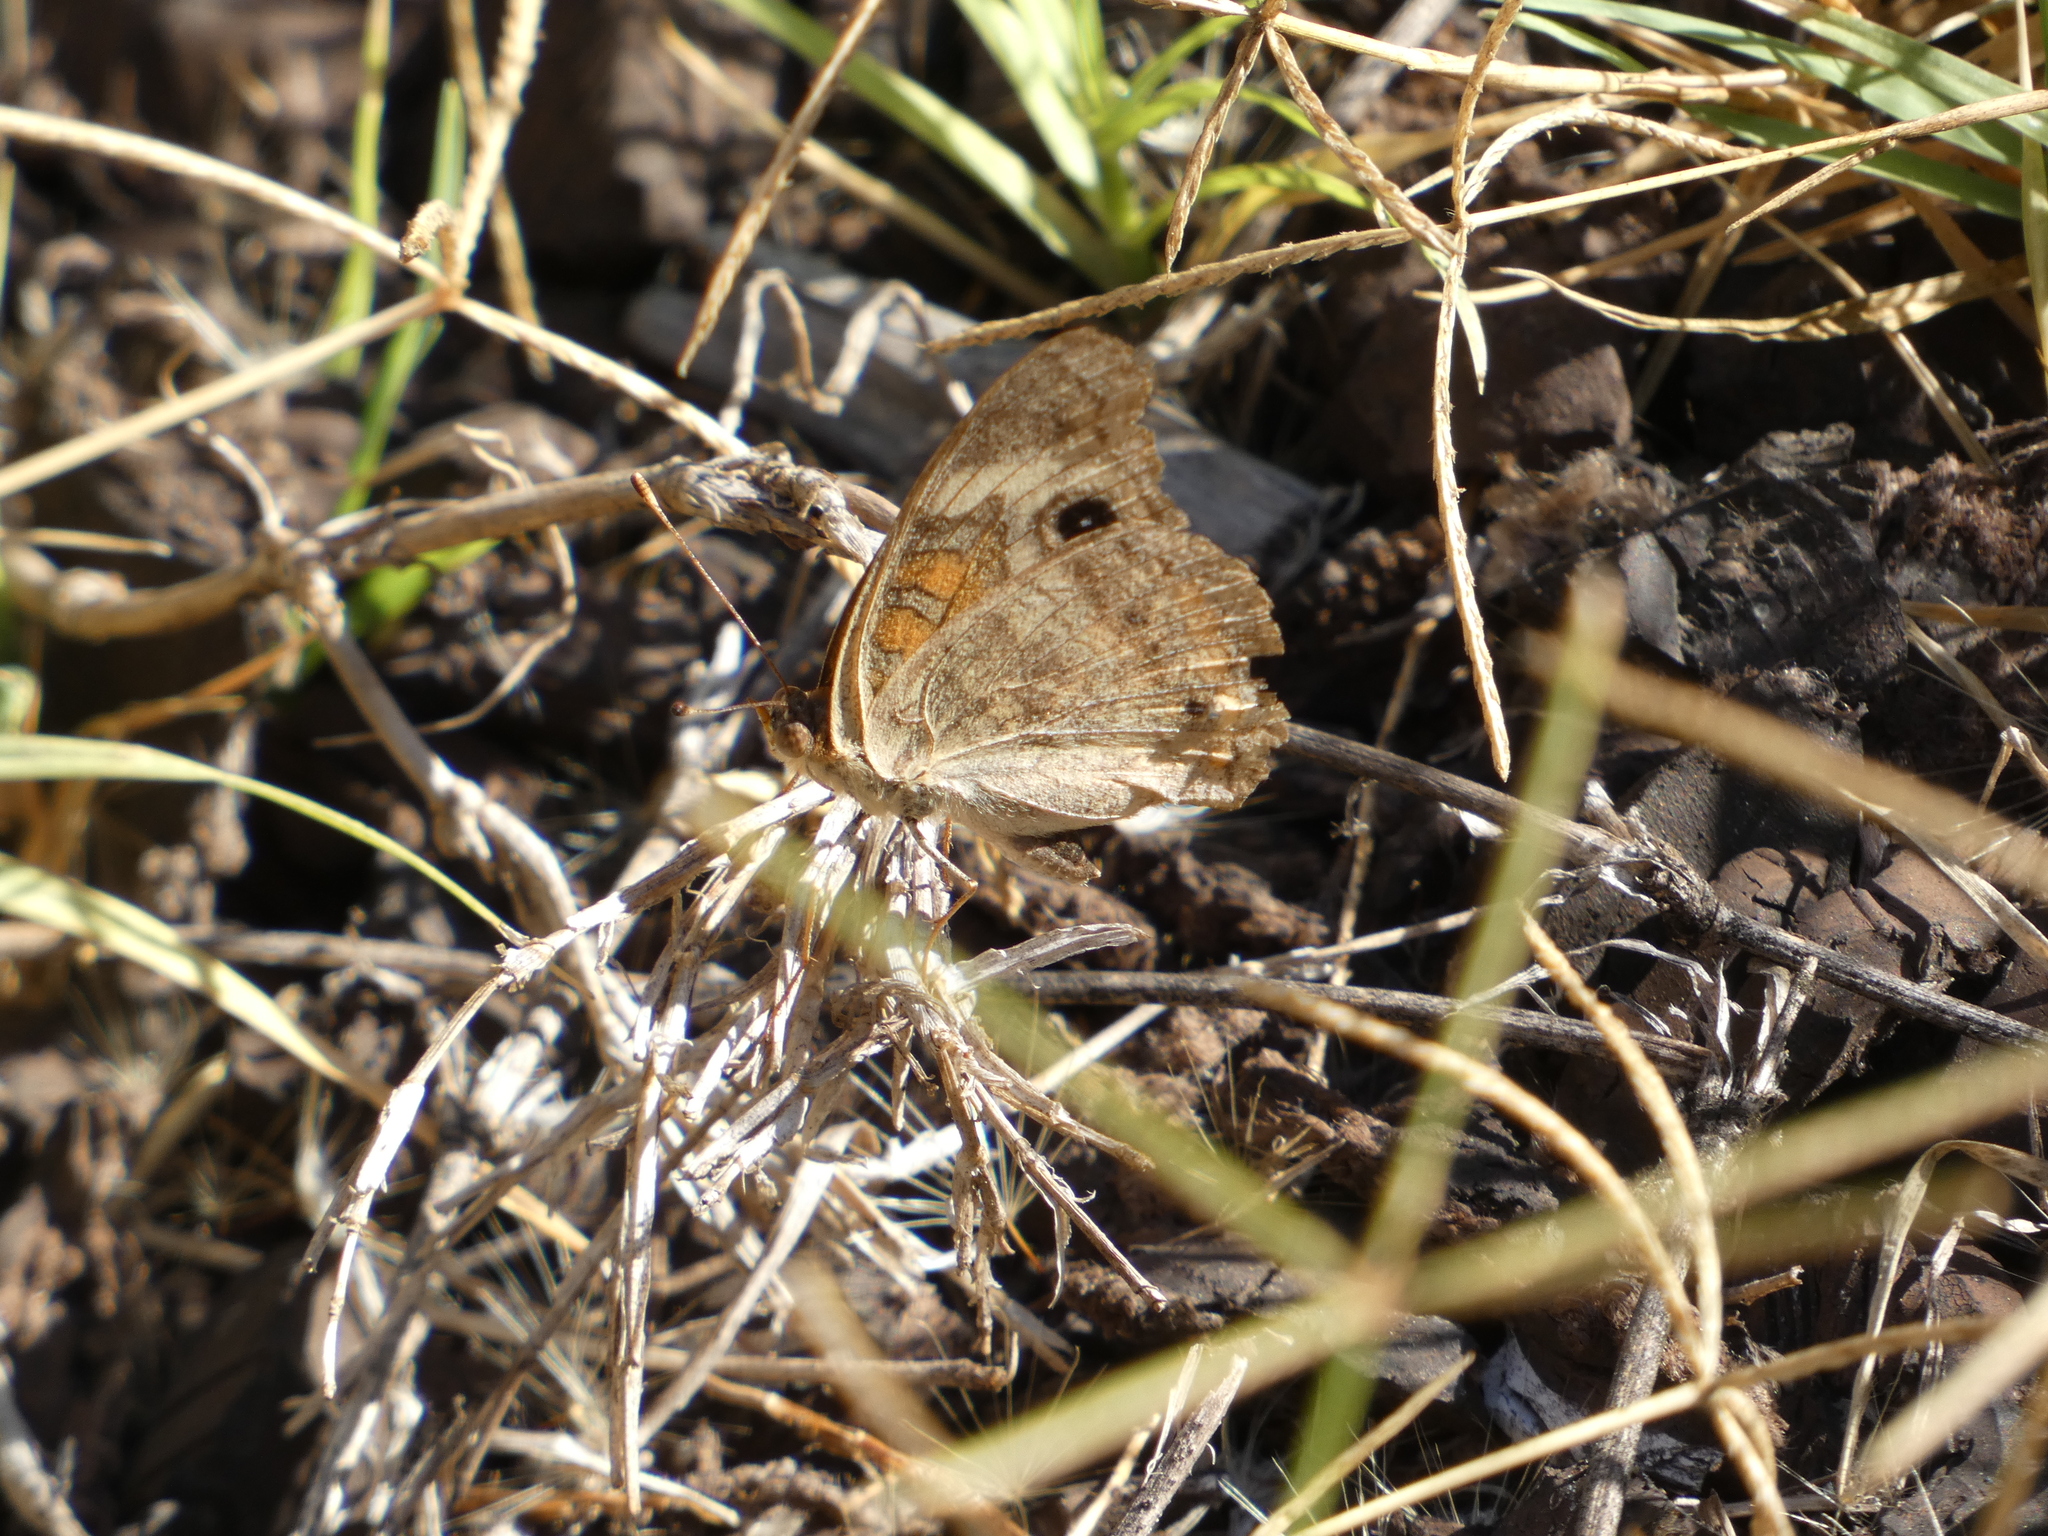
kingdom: Animalia
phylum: Arthropoda
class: Insecta
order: Lepidoptera
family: Nymphalidae
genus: Junonia
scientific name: Junonia grisea
